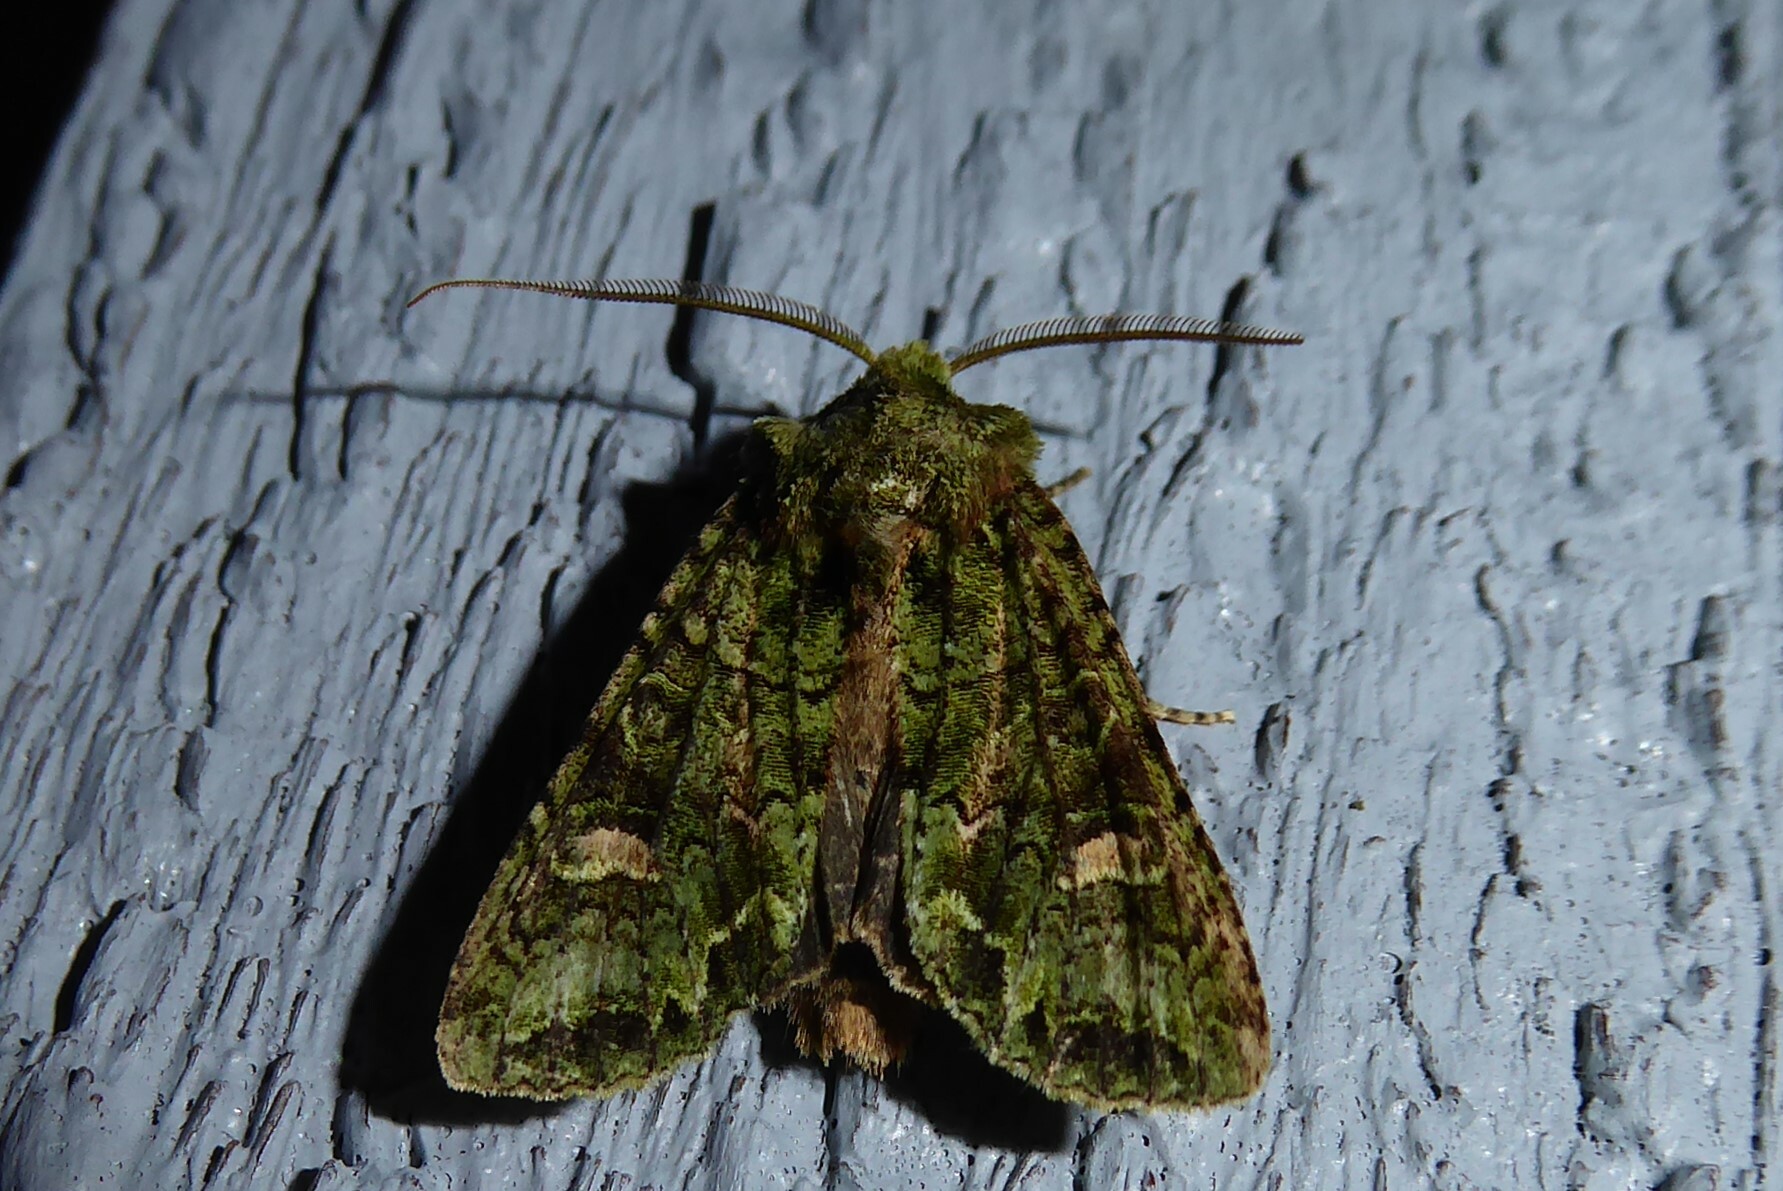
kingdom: Animalia
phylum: Arthropoda
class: Insecta
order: Lepidoptera
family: Noctuidae
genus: Ichneutica
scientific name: Ichneutica
